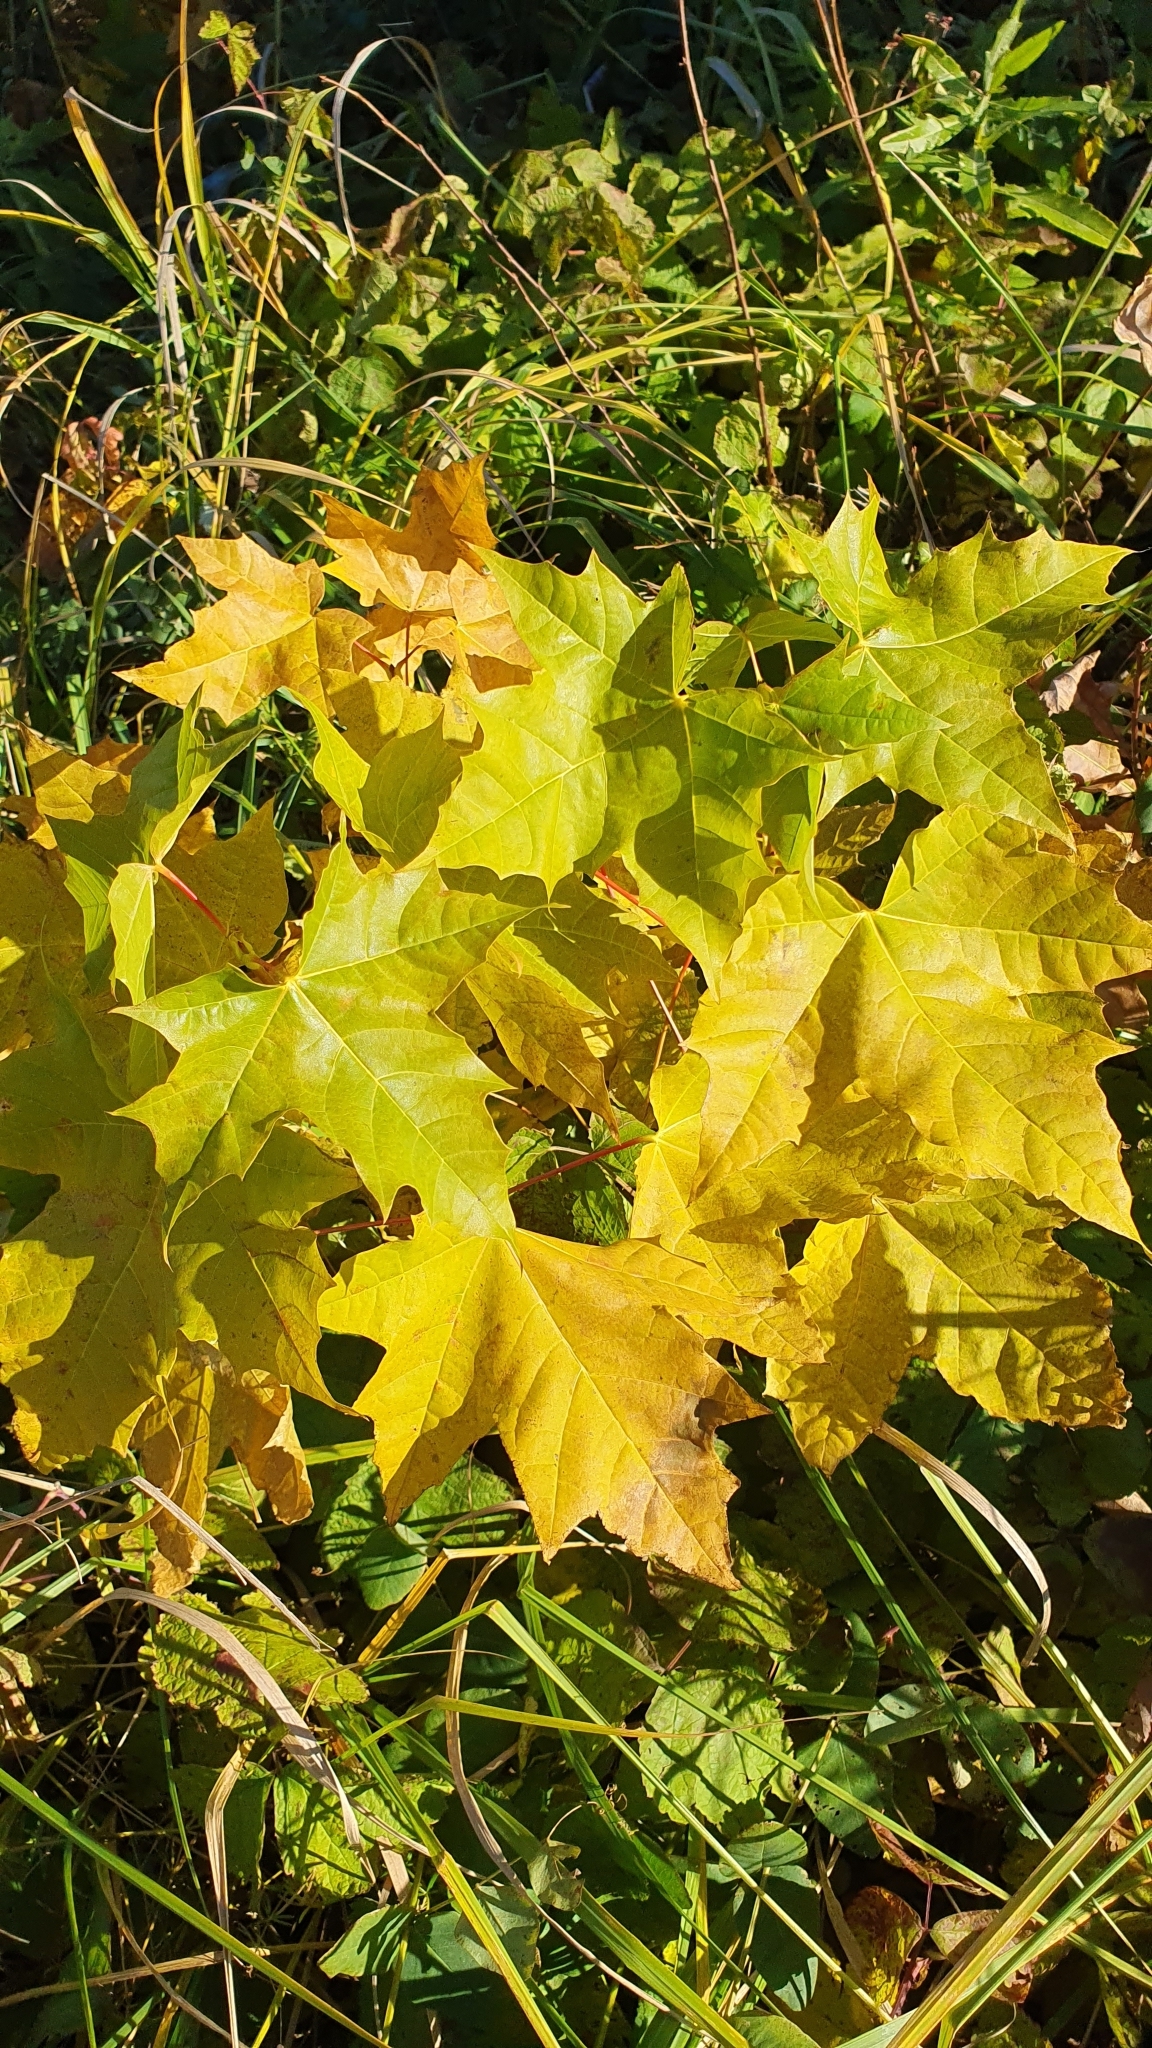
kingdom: Plantae
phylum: Tracheophyta
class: Magnoliopsida
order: Sapindales
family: Sapindaceae
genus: Acer
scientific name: Acer platanoides
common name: Norway maple
